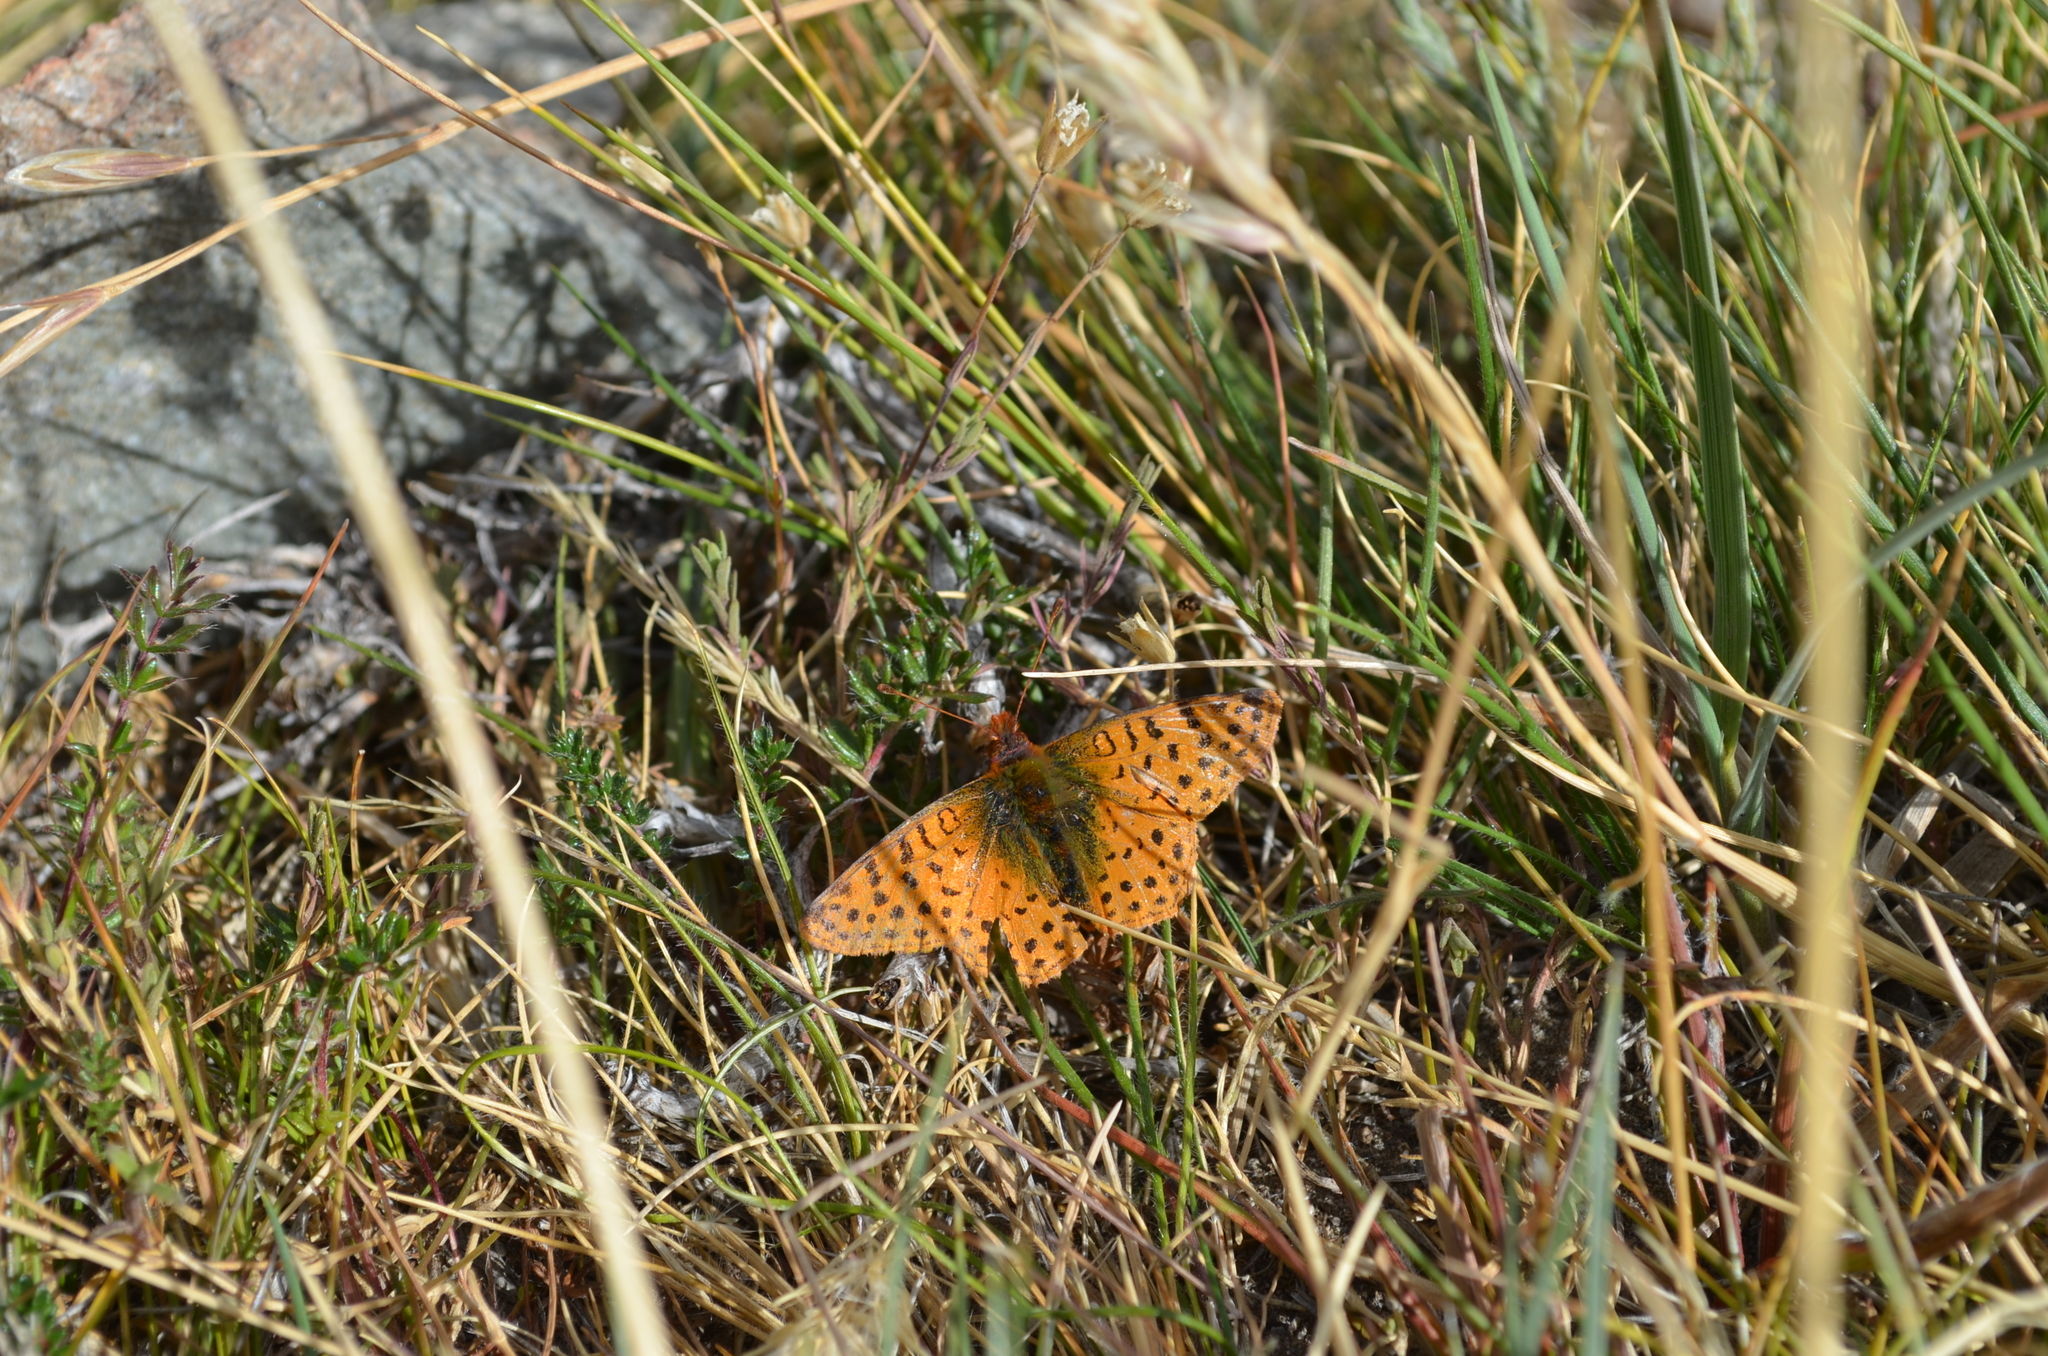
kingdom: Animalia
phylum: Arthropoda
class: Insecta
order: Lepidoptera
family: Nymphalidae
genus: Issoria
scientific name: Issoria Yramea cytheris
